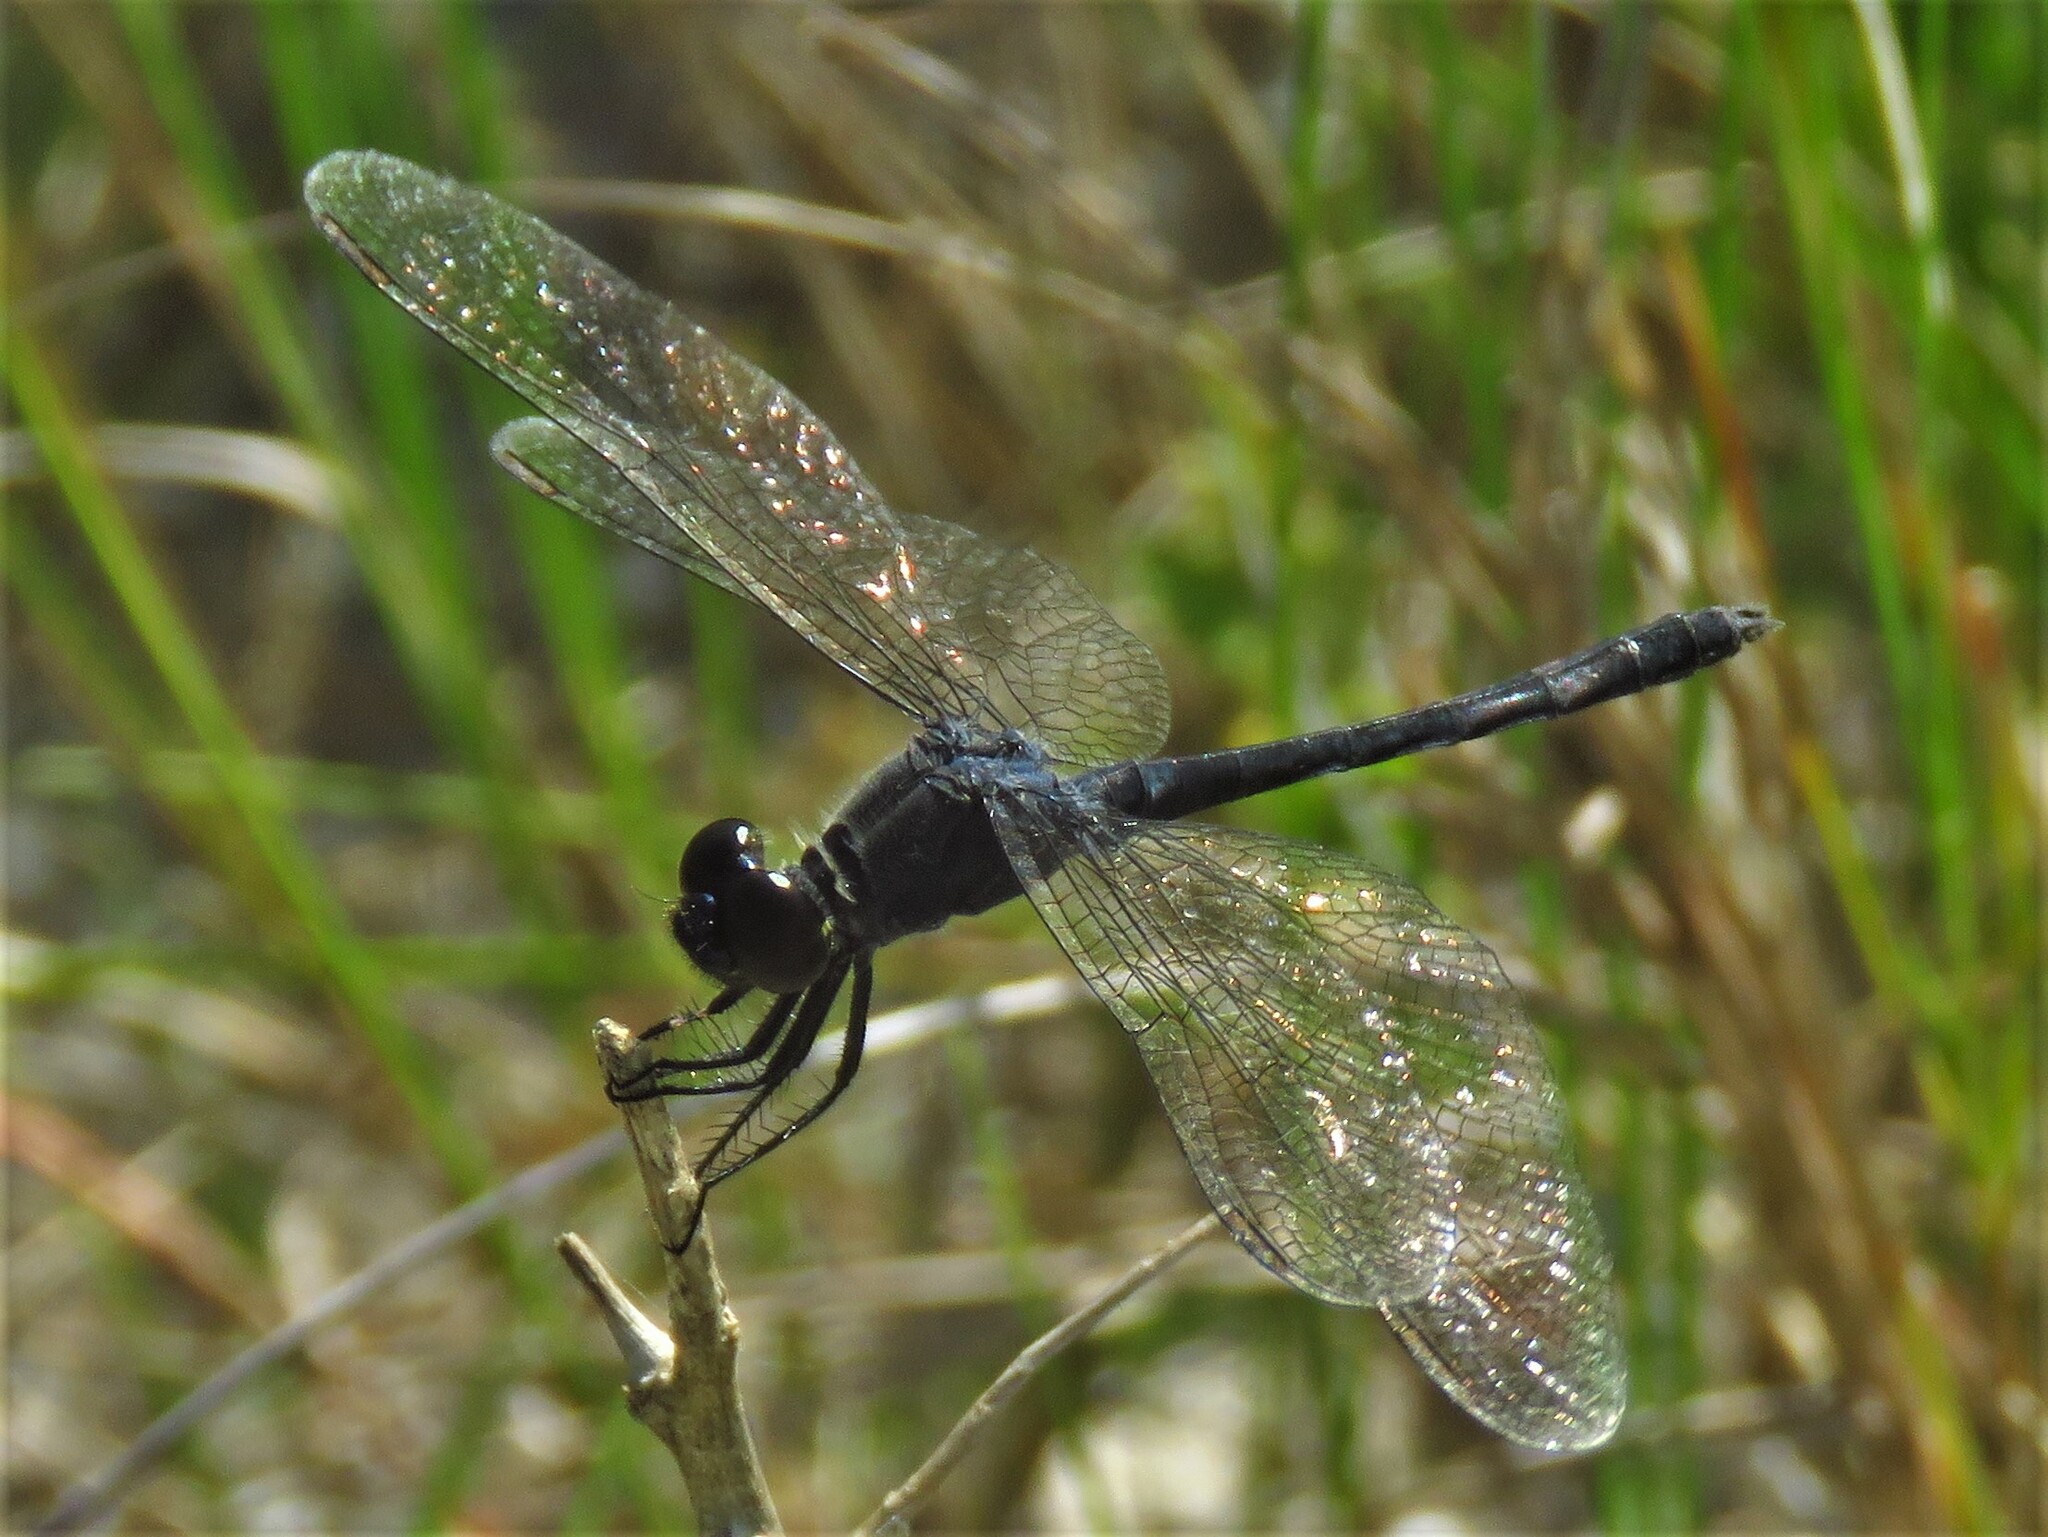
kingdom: Animalia
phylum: Arthropoda
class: Insecta
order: Odonata
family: Libellulidae
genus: Erythrodiplax
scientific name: Erythrodiplax berenice
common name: Seaside dragonlet
